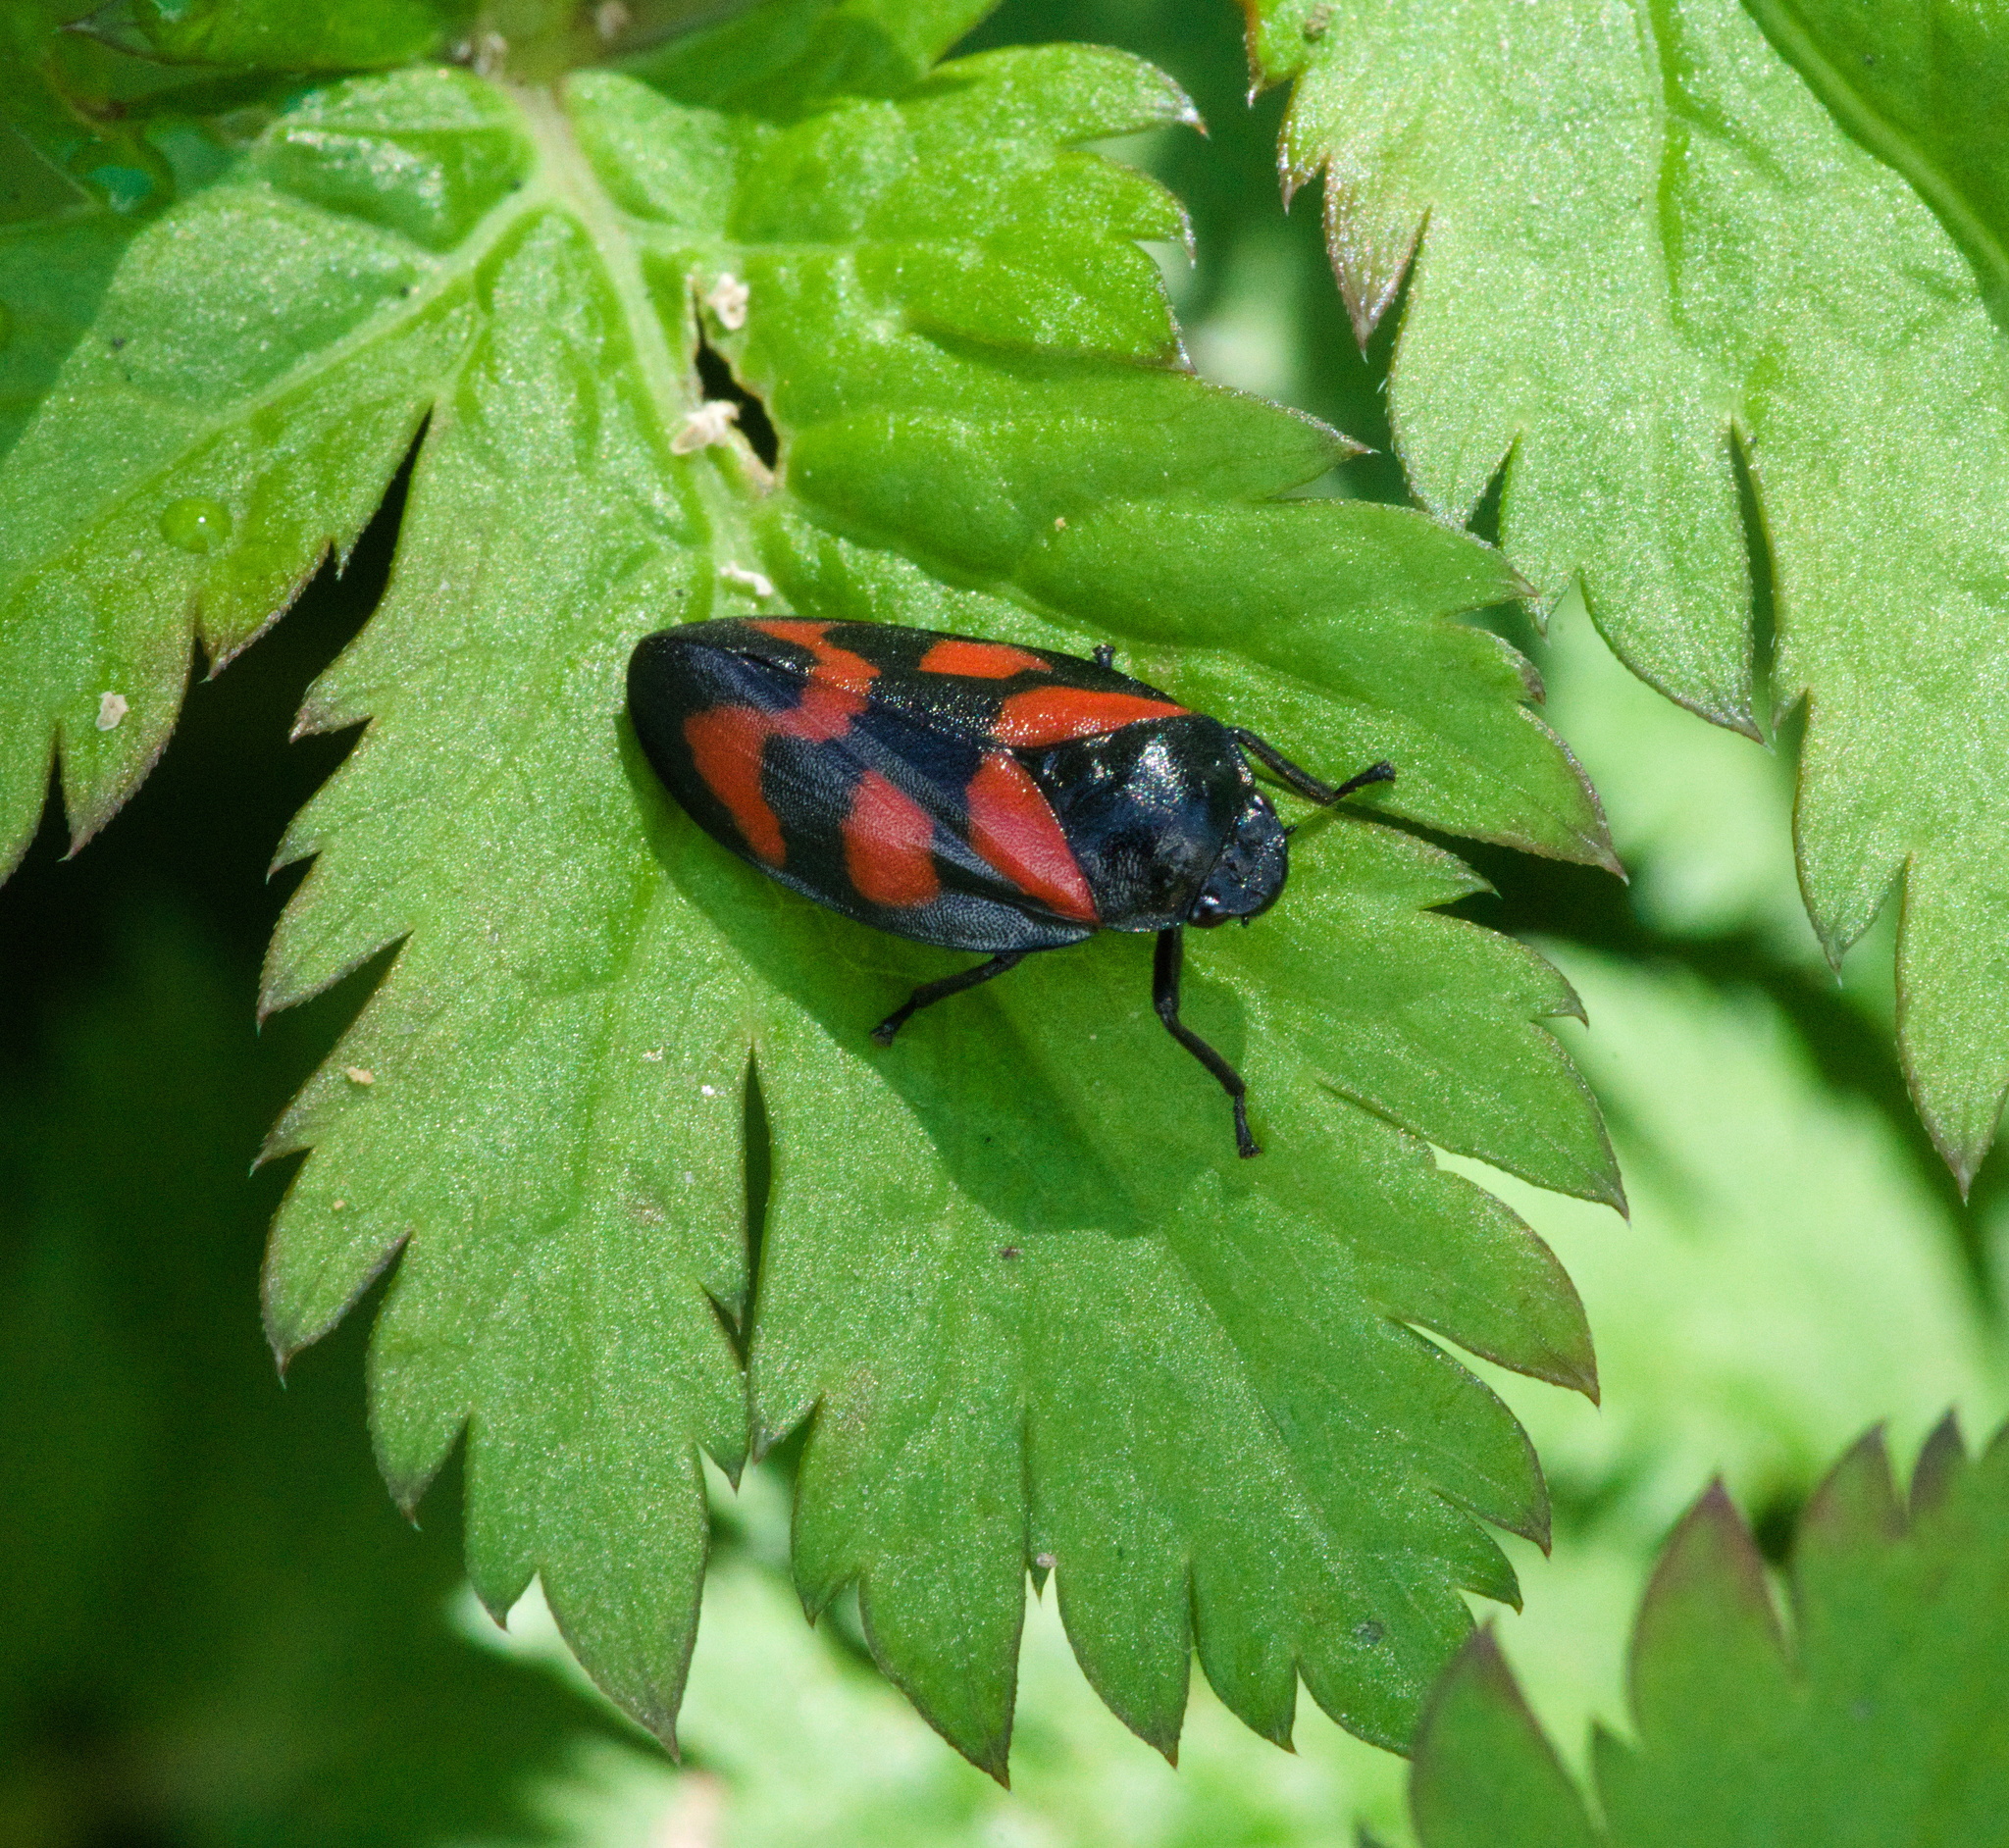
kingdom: Animalia
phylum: Arthropoda
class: Insecta
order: Hemiptera
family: Cercopidae
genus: Cercopis
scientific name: Cercopis vulnerata
